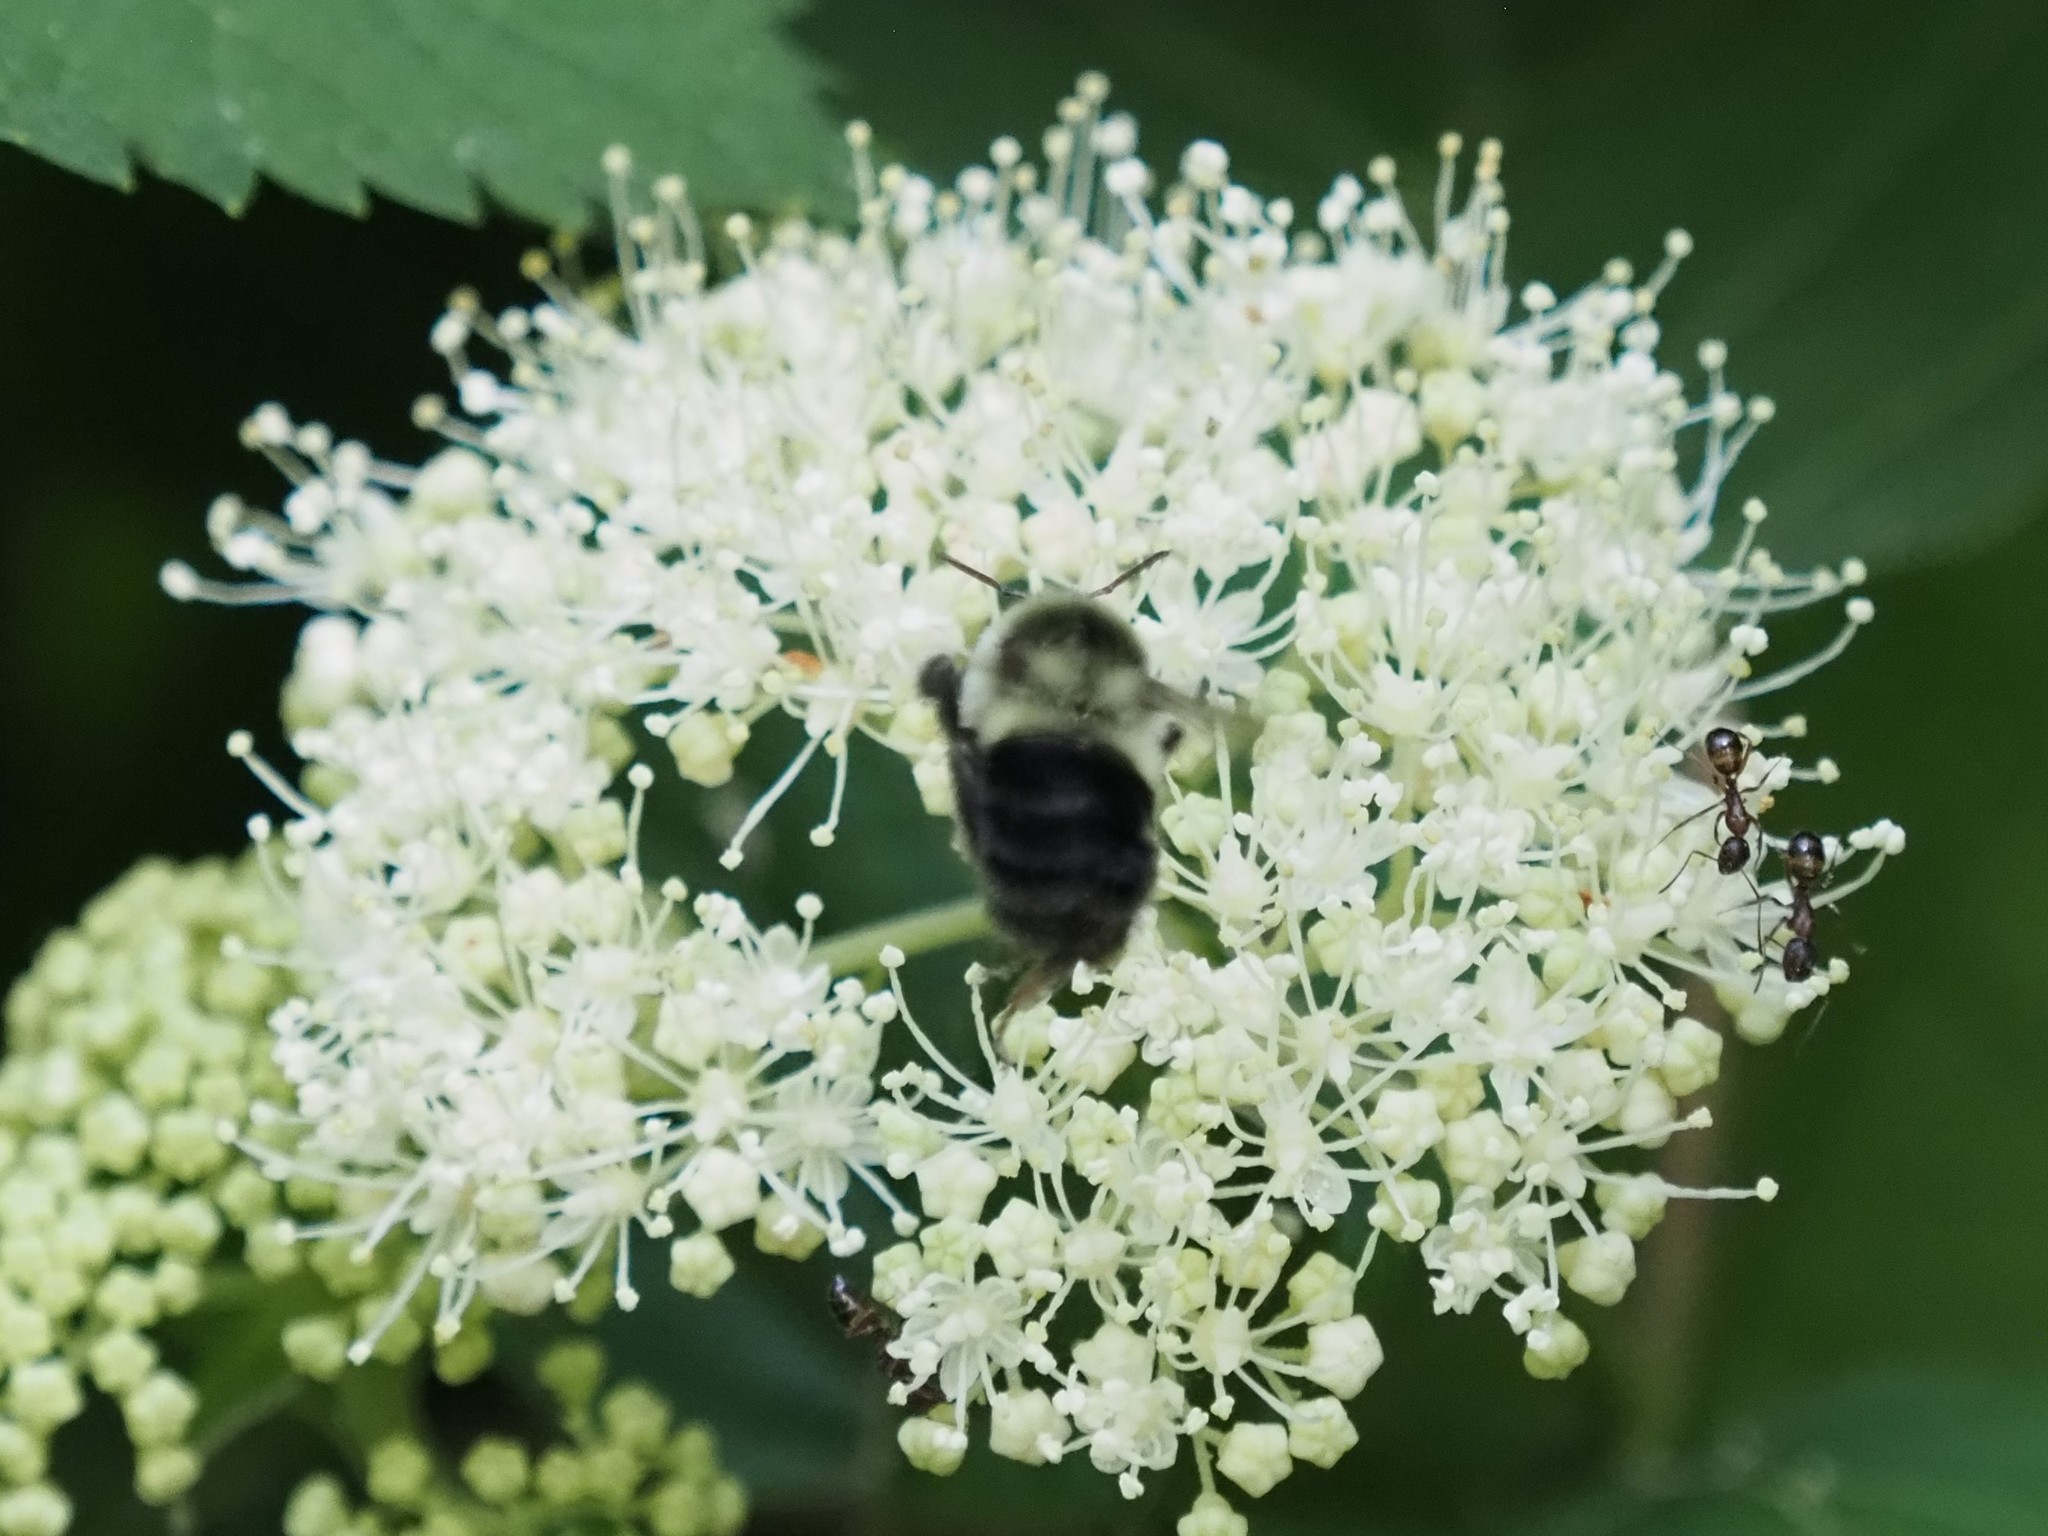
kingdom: Animalia
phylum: Arthropoda
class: Insecta
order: Hymenoptera
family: Apidae
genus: Bombus
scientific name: Bombus impatiens
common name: Common eastern bumble bee
